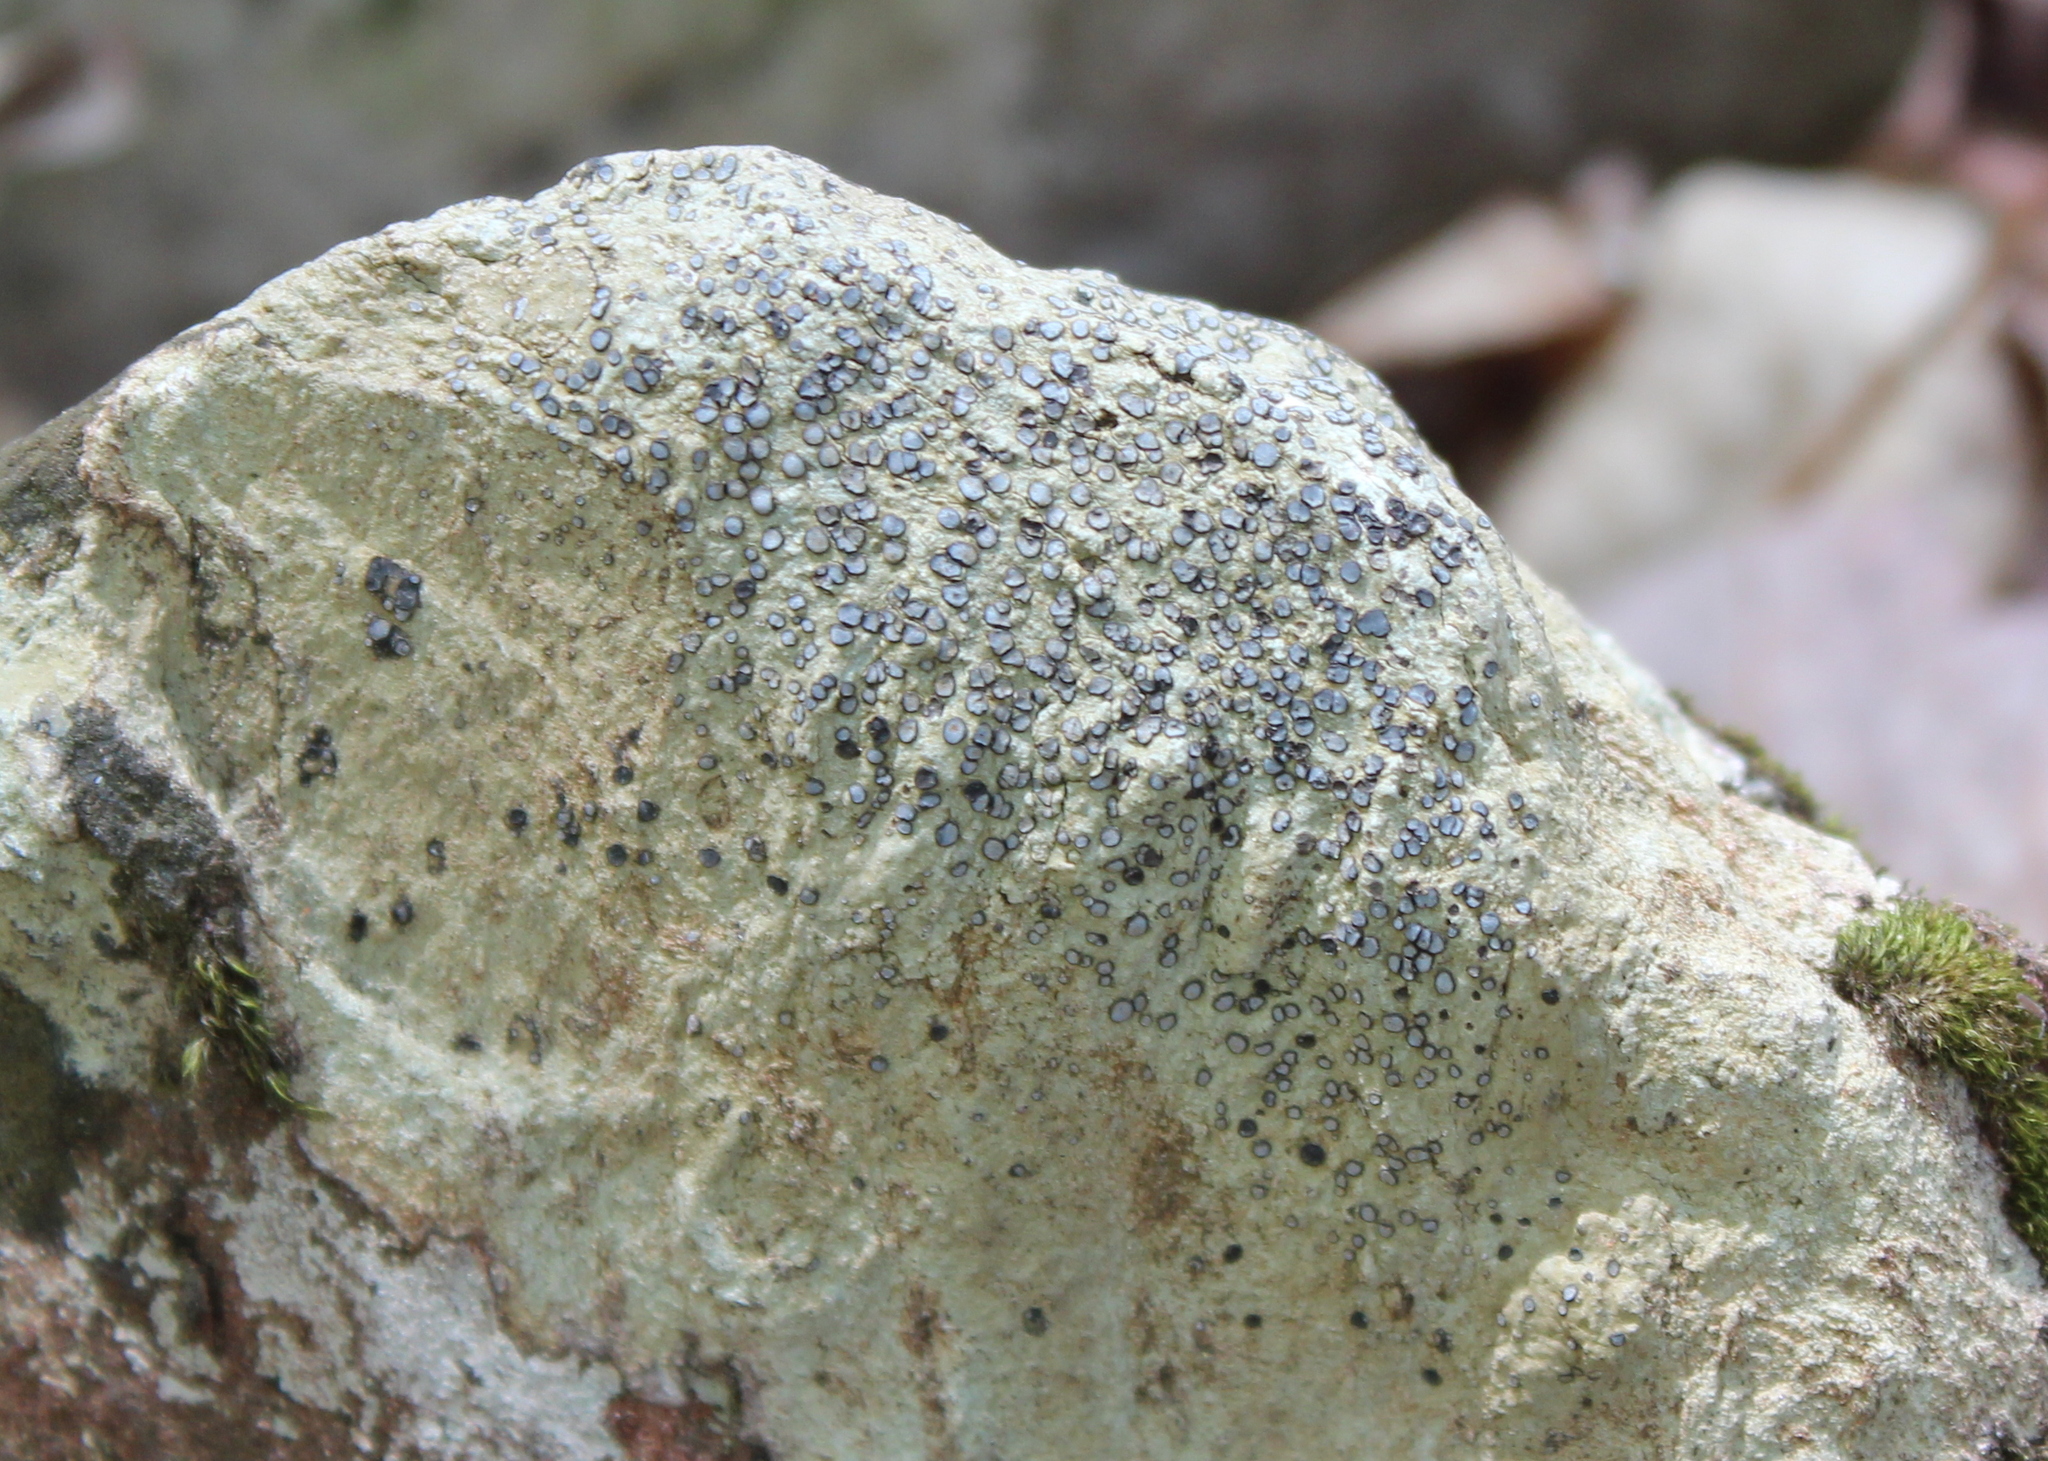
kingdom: Fungi
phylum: Ascomycota
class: Lecanoromycetes
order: Lecideales
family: Lecideaceae
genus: Porpidia
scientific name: Porpidia albocaerulescens
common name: Smokey-eyed boulder lichen
